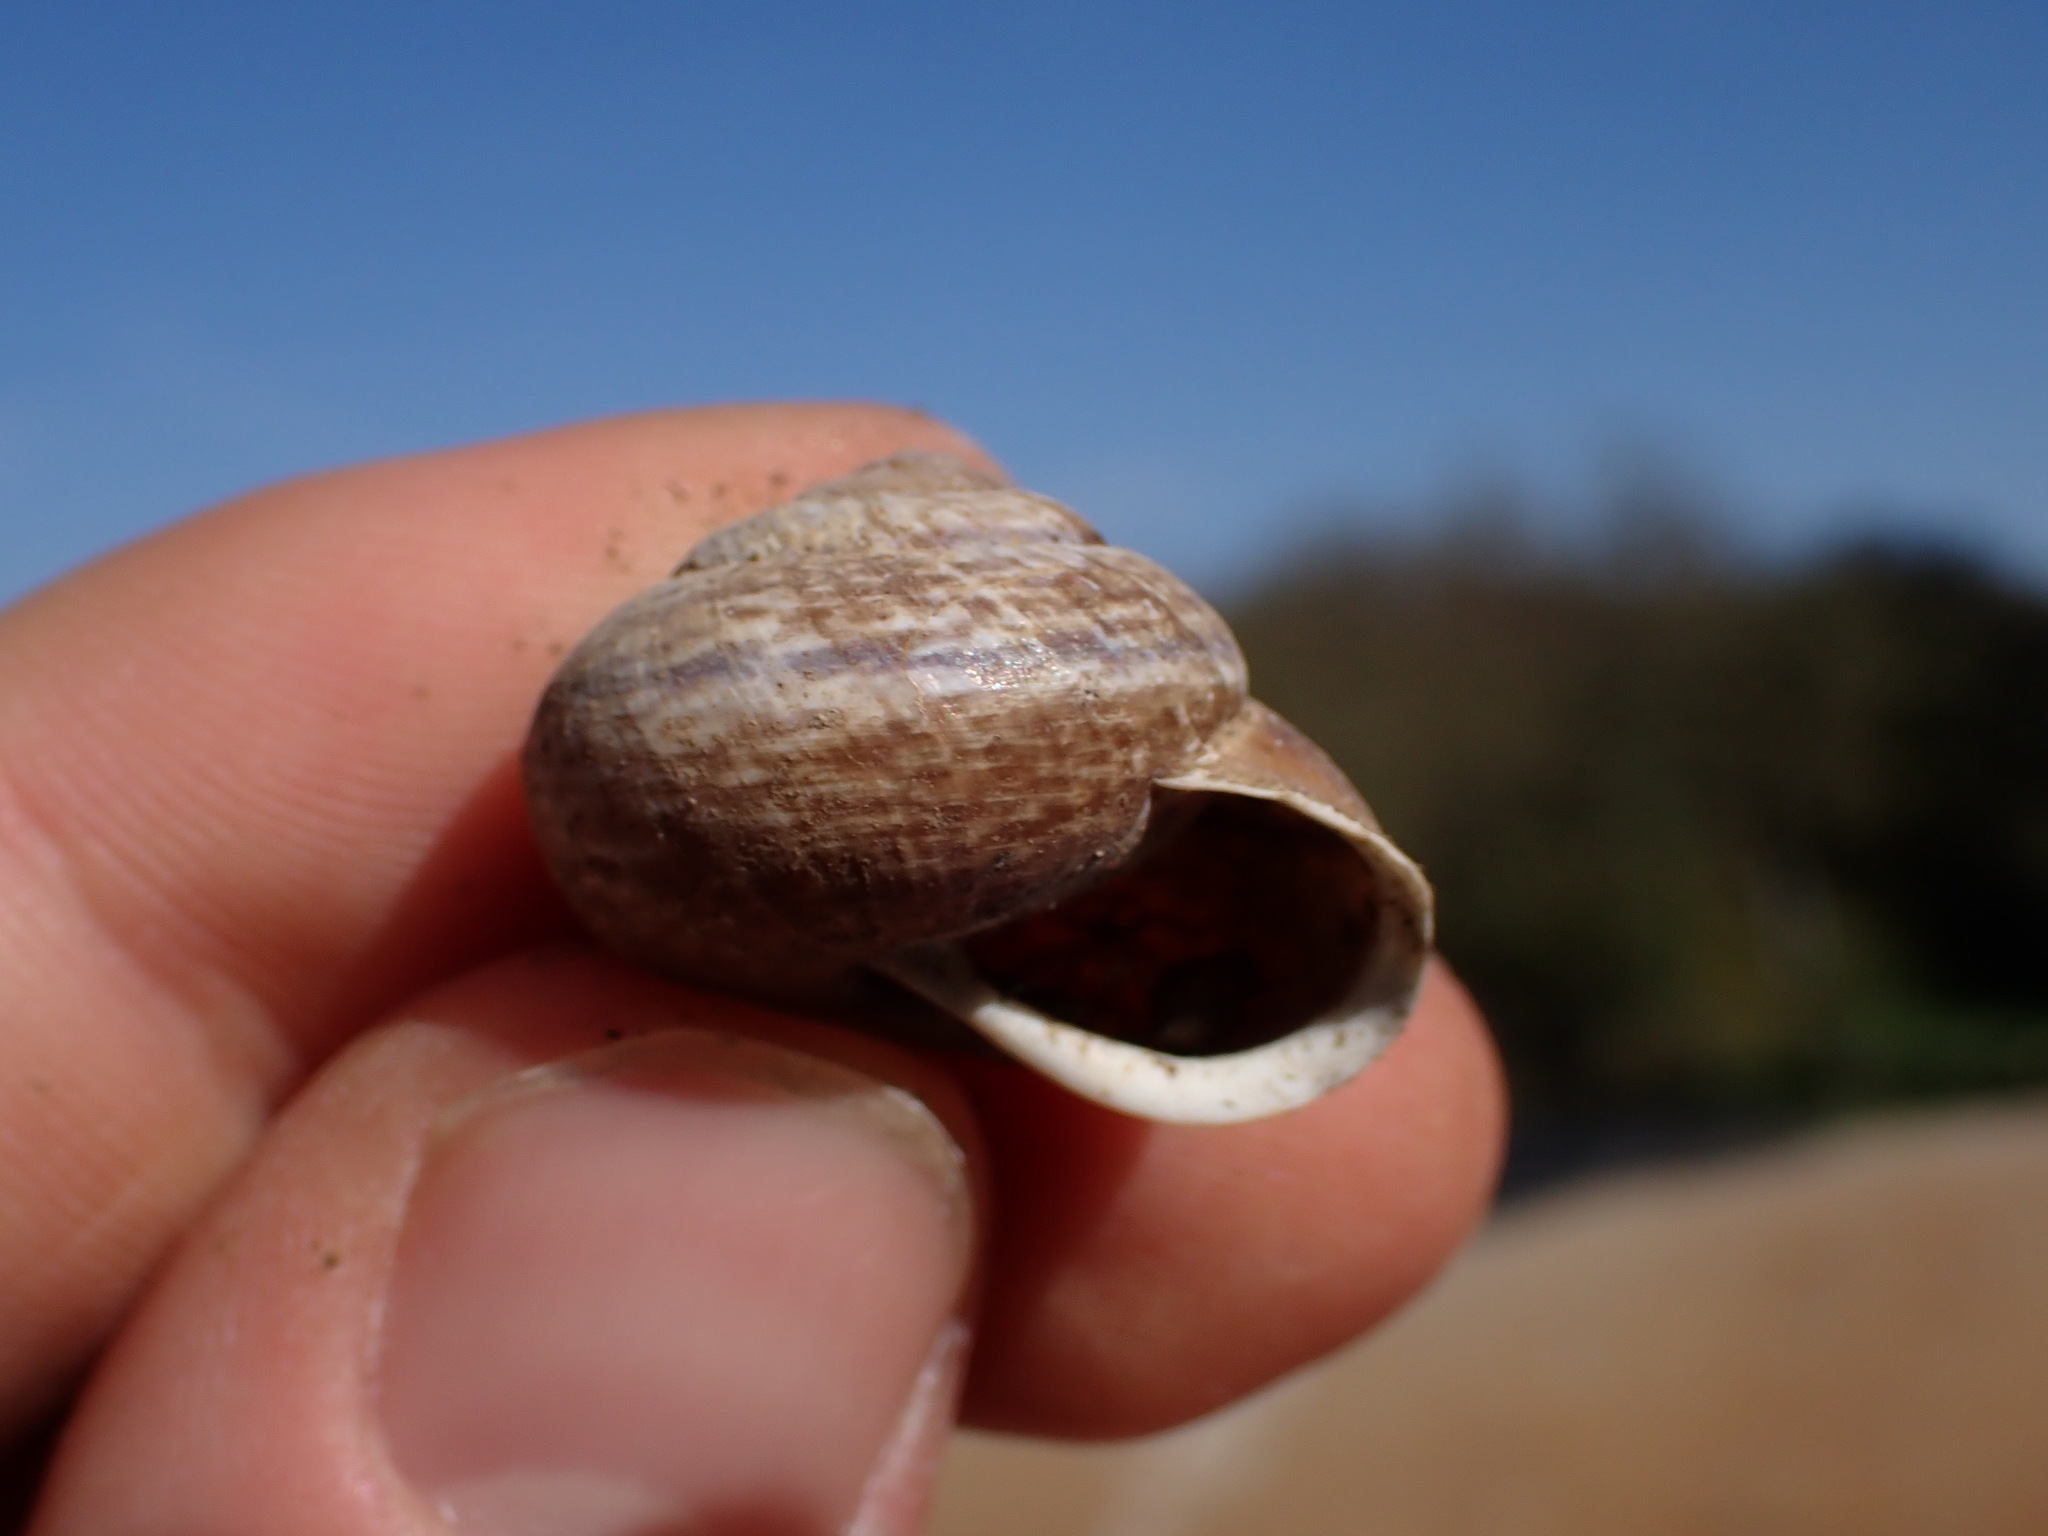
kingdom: Animalia
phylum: Mollusca
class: Gastropoda
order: Stylommatophora
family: Helicidae
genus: Arianta
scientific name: Arianta arbustorum
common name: Copse snail
